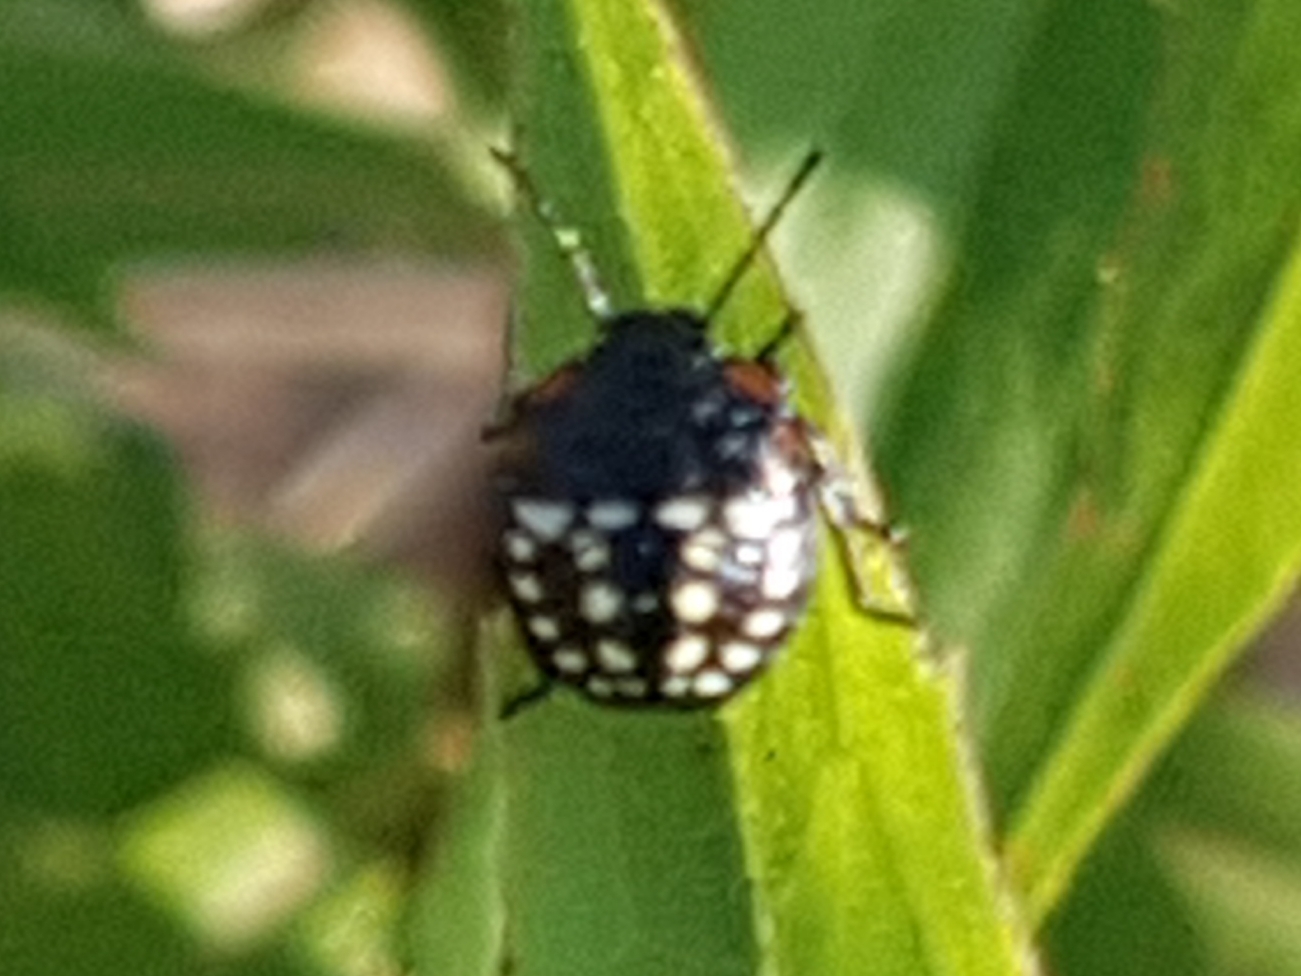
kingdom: Animalia
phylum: Arthropoda
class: Insecta
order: Hemiptera
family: Pentatomidae
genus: Nezara
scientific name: Nezara viridula
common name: Southern green stink bug
